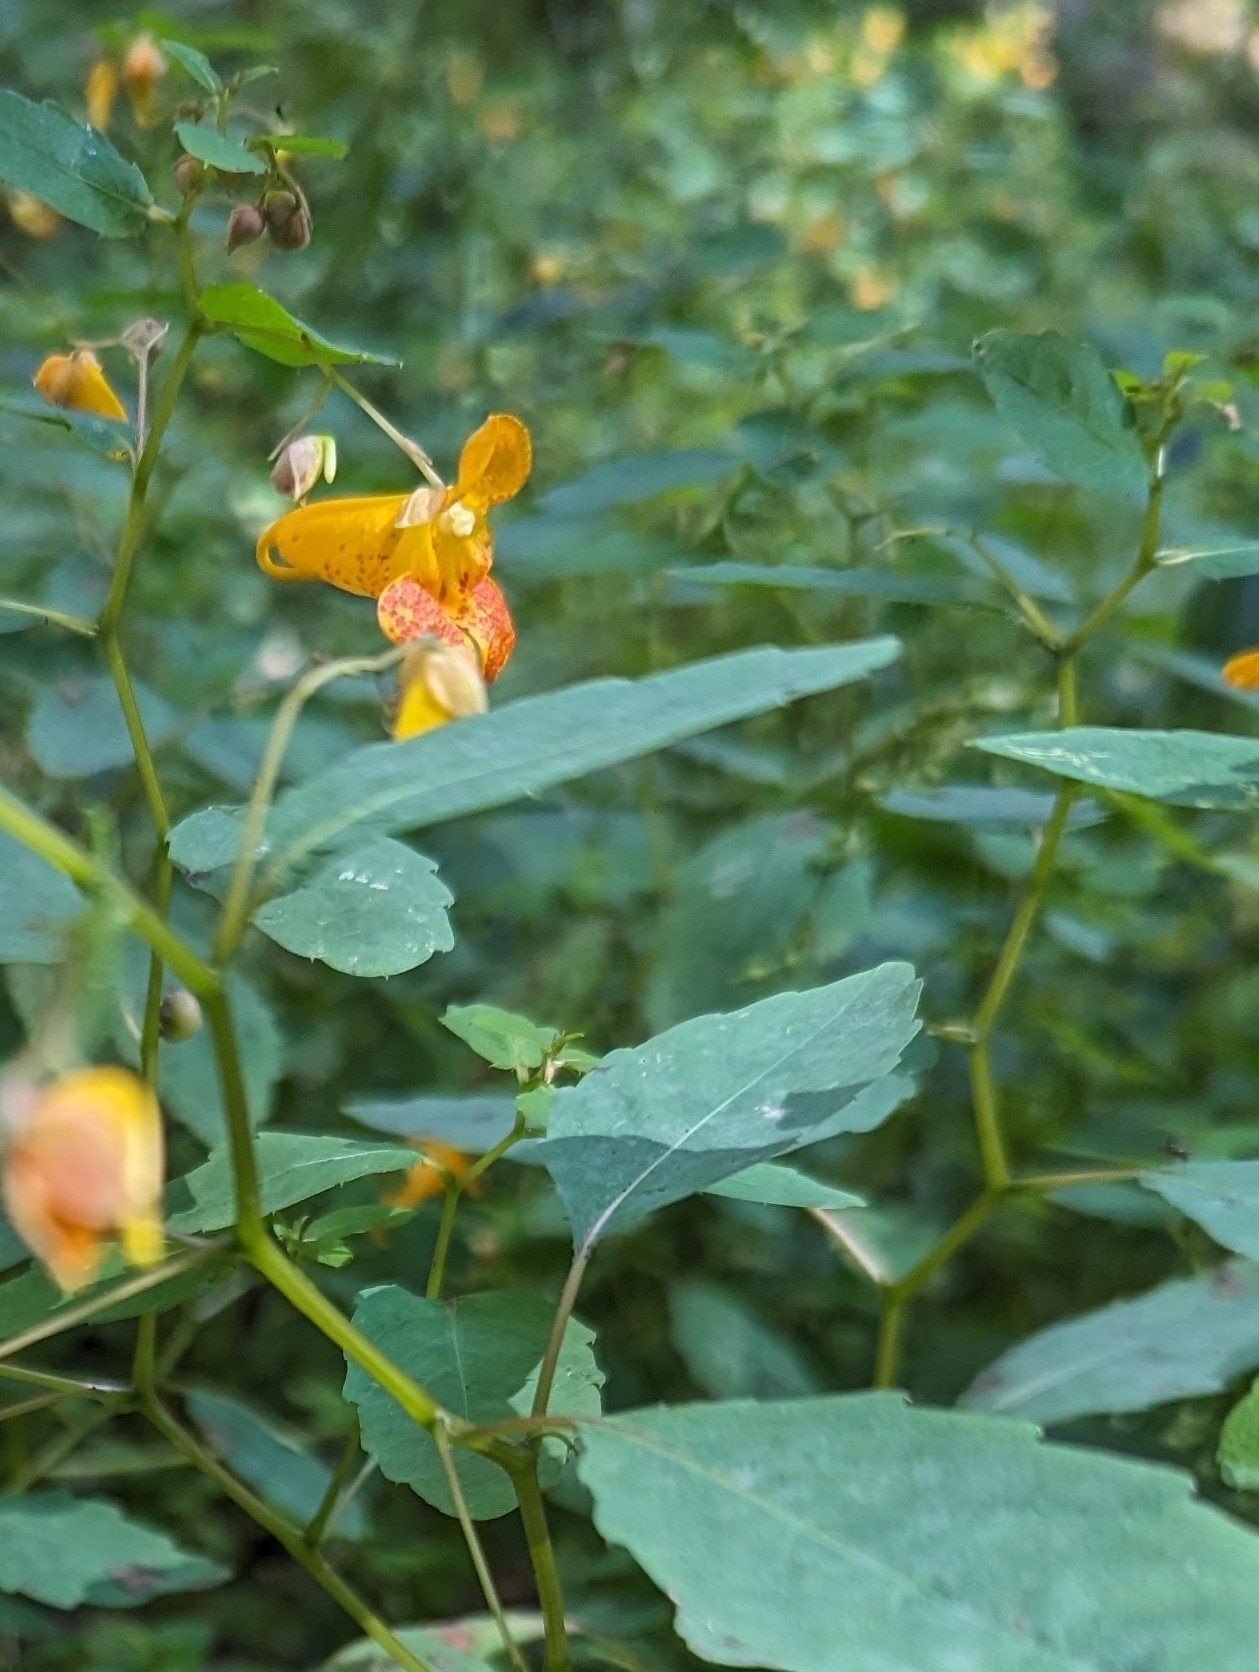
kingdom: Plantae
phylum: Tracheophyta
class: Magnoliopsida
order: Ericales
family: Balsaminaceae
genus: Impatiens
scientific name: Impatiens capensis
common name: Orange balsam
